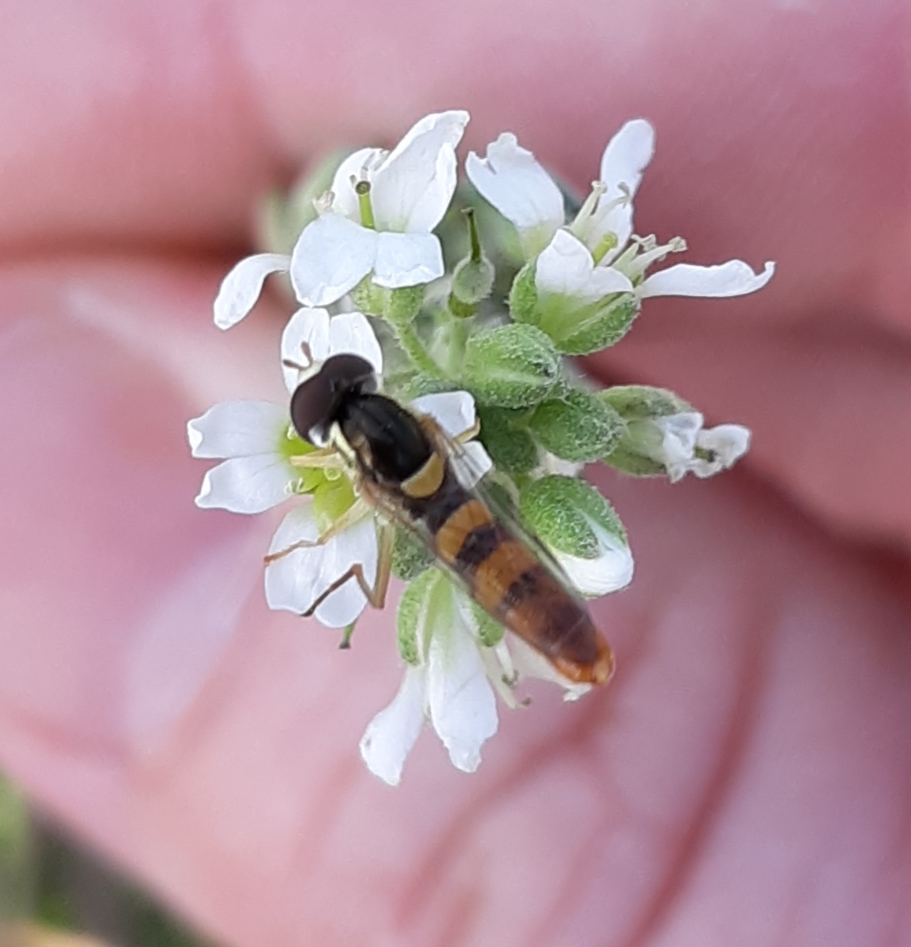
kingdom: Animalia
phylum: Arthropoda
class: Insecta
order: Diptera
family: Syrphidae
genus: Sphaerophoria
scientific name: Sphaerophoria contigua
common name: Tufted globetail
